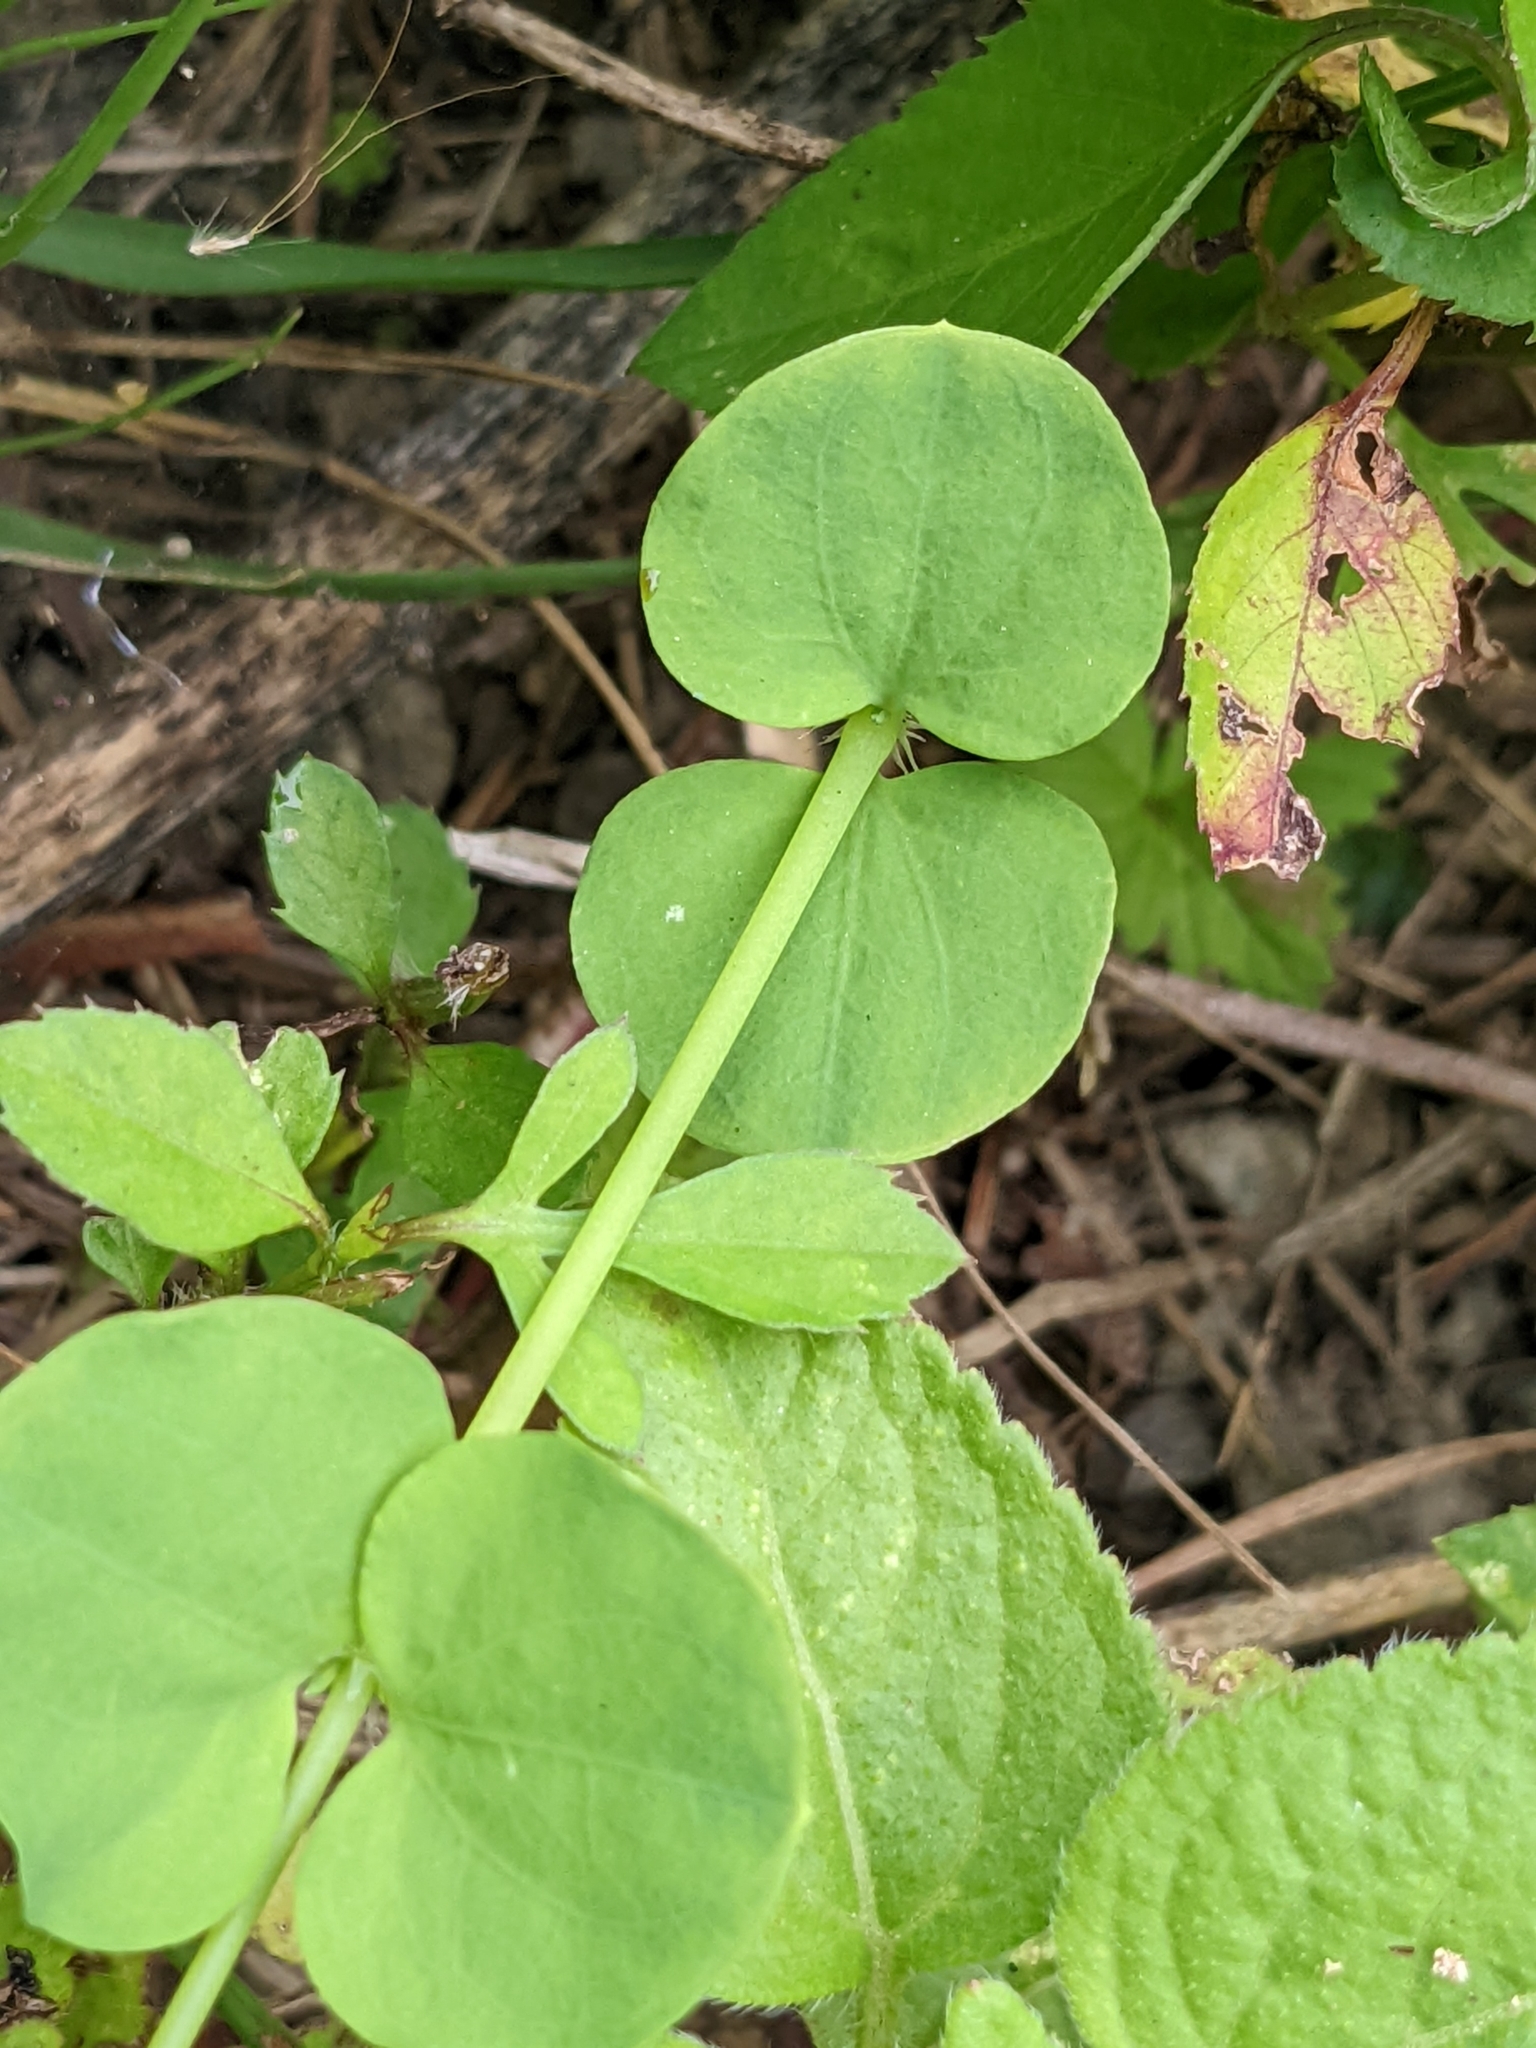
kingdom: Plantae
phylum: Tracheophyta
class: Magnoliopsida
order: Caryophyllales
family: Caryophyllaceae
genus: Drymaria
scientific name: Drymaria cordata
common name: Whitesnow
